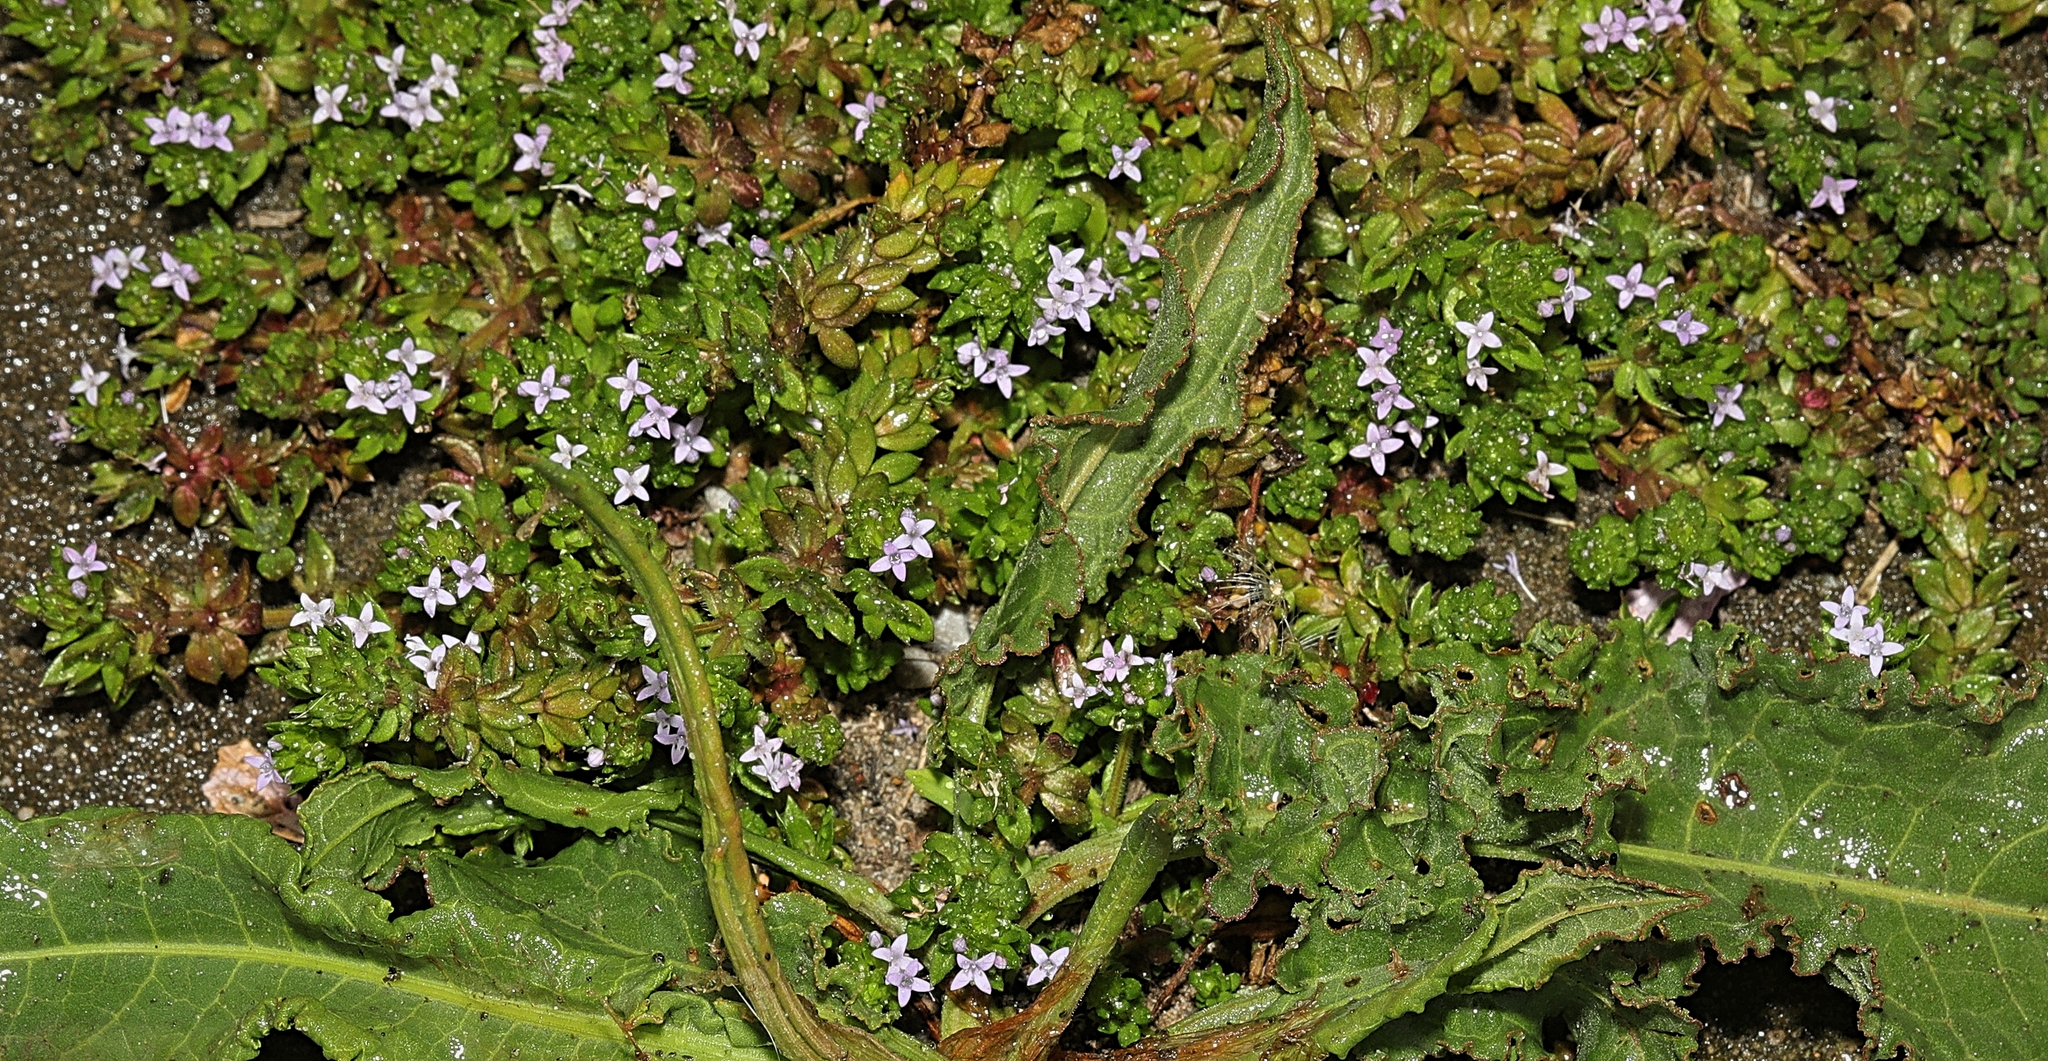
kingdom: Plantae
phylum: Tracheophyta
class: Magnoliopsida
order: Gentianales
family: Rubiaceae
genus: Sherardia
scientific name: Sherardia arvensis
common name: Field madder
